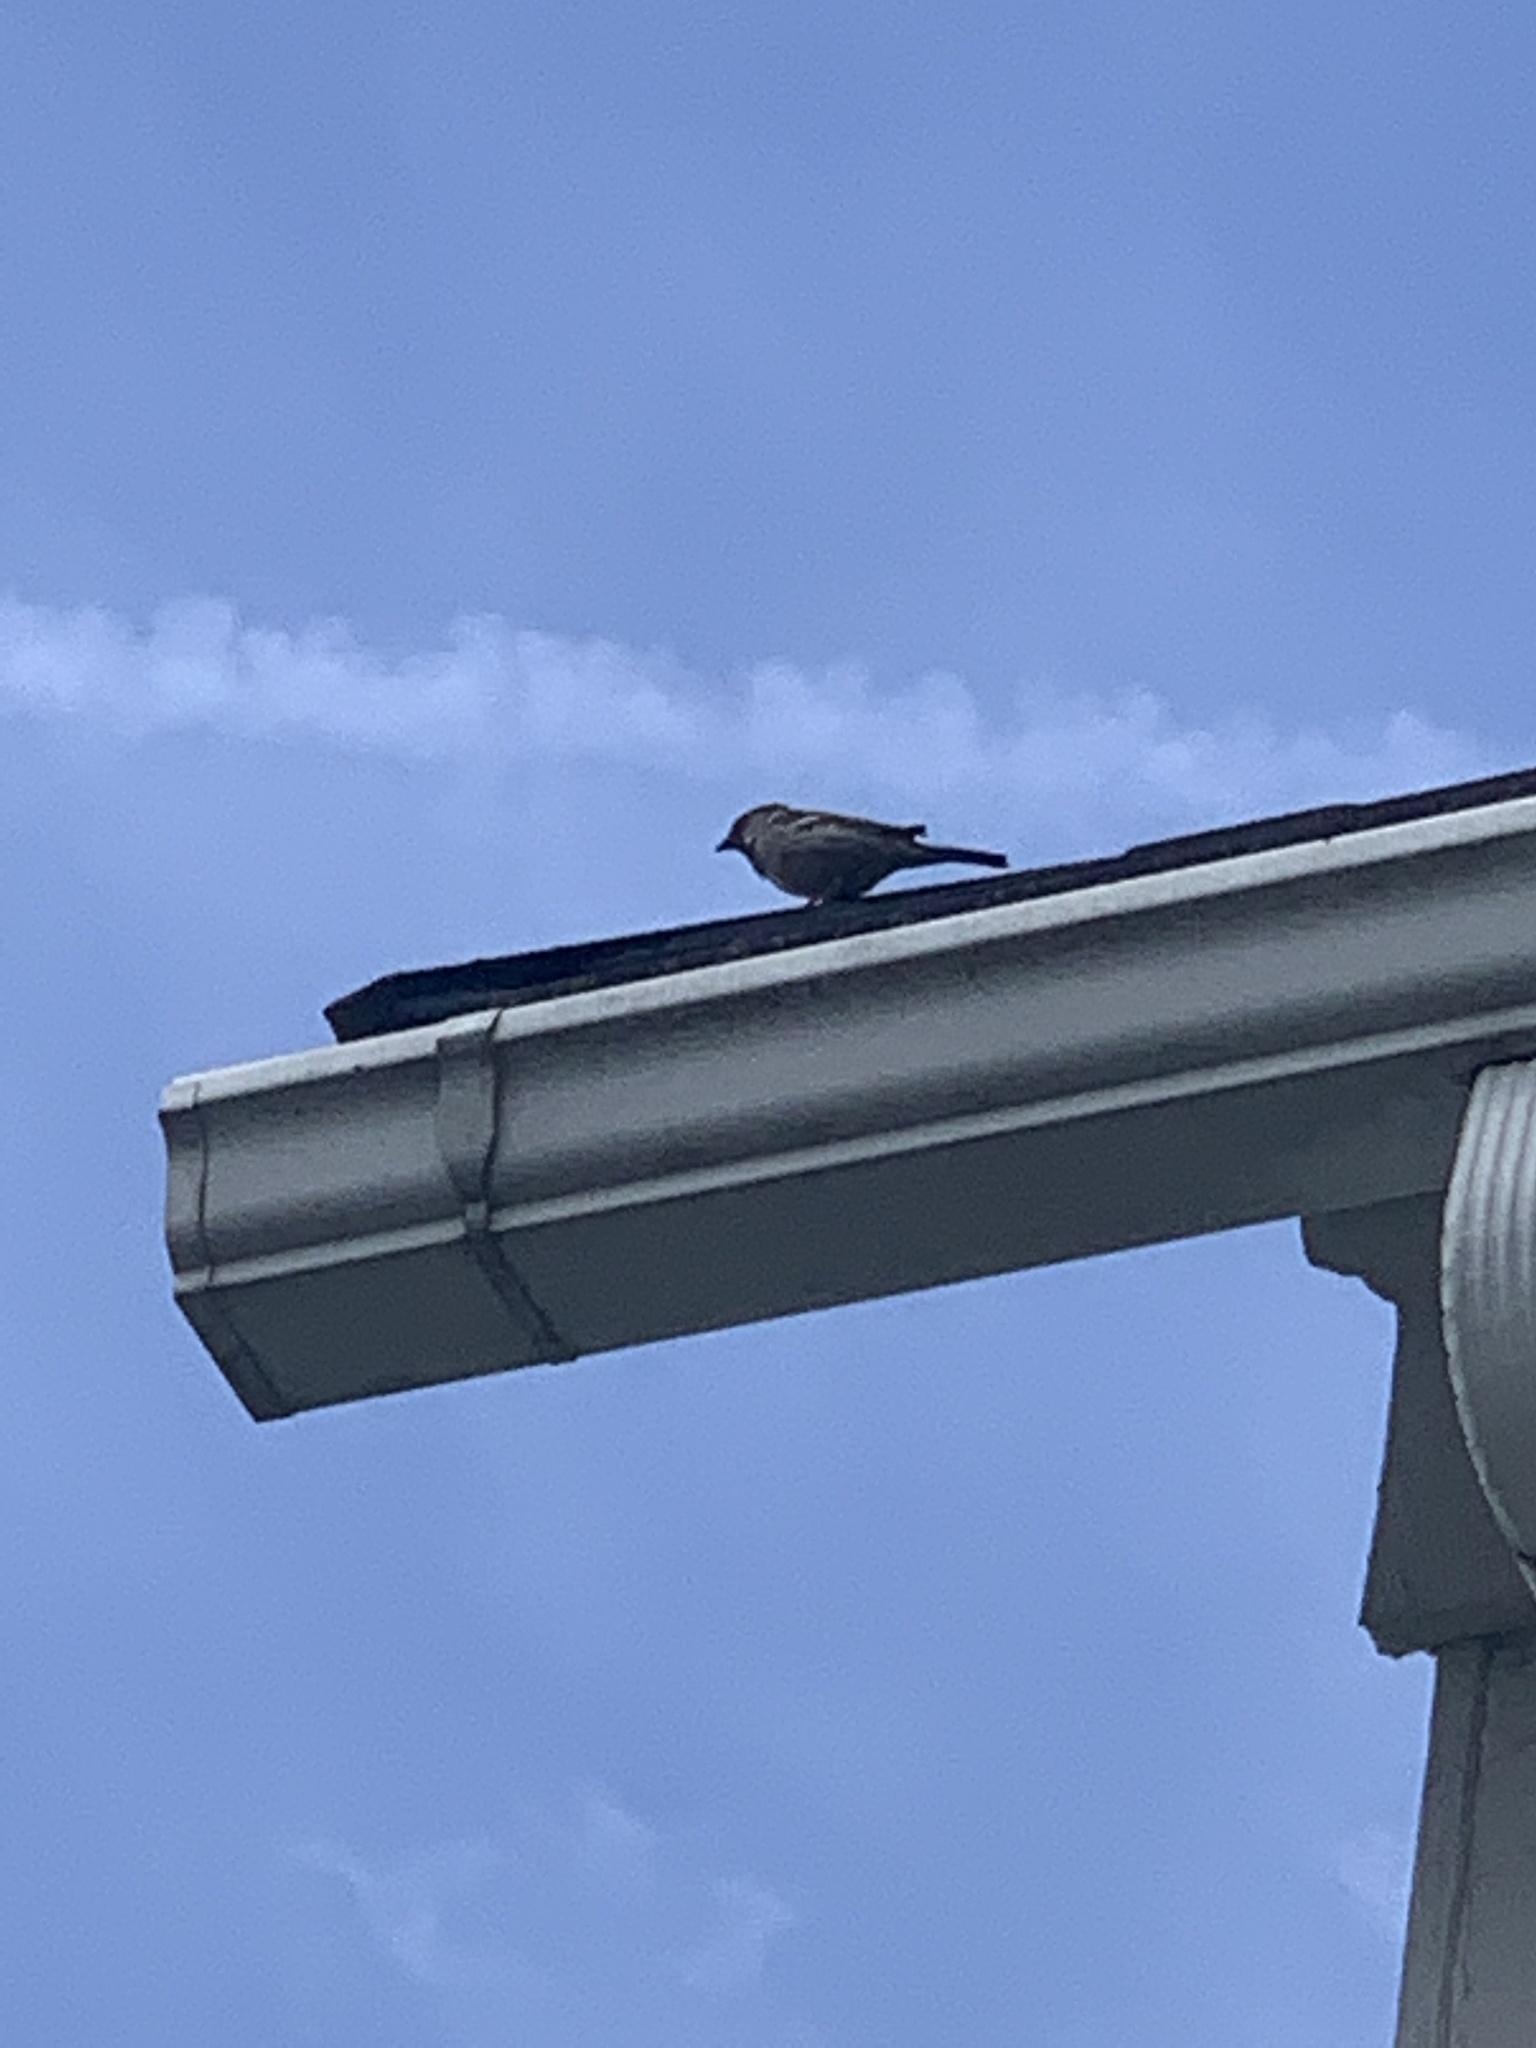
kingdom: Animalia
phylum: Chordata
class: Aves
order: Passeriformes
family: Passeridae
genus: Passer
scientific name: Passer domesticus
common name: House sparrow
